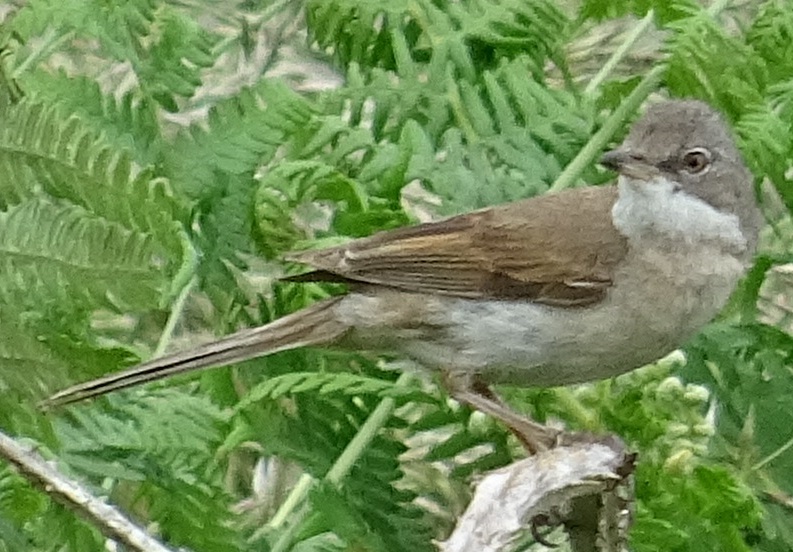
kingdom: Animalia
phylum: Chordata
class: Aves
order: Passeriformes
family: Sylviidae
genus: Sylvia
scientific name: Sylvia communis
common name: Common whitethroat
